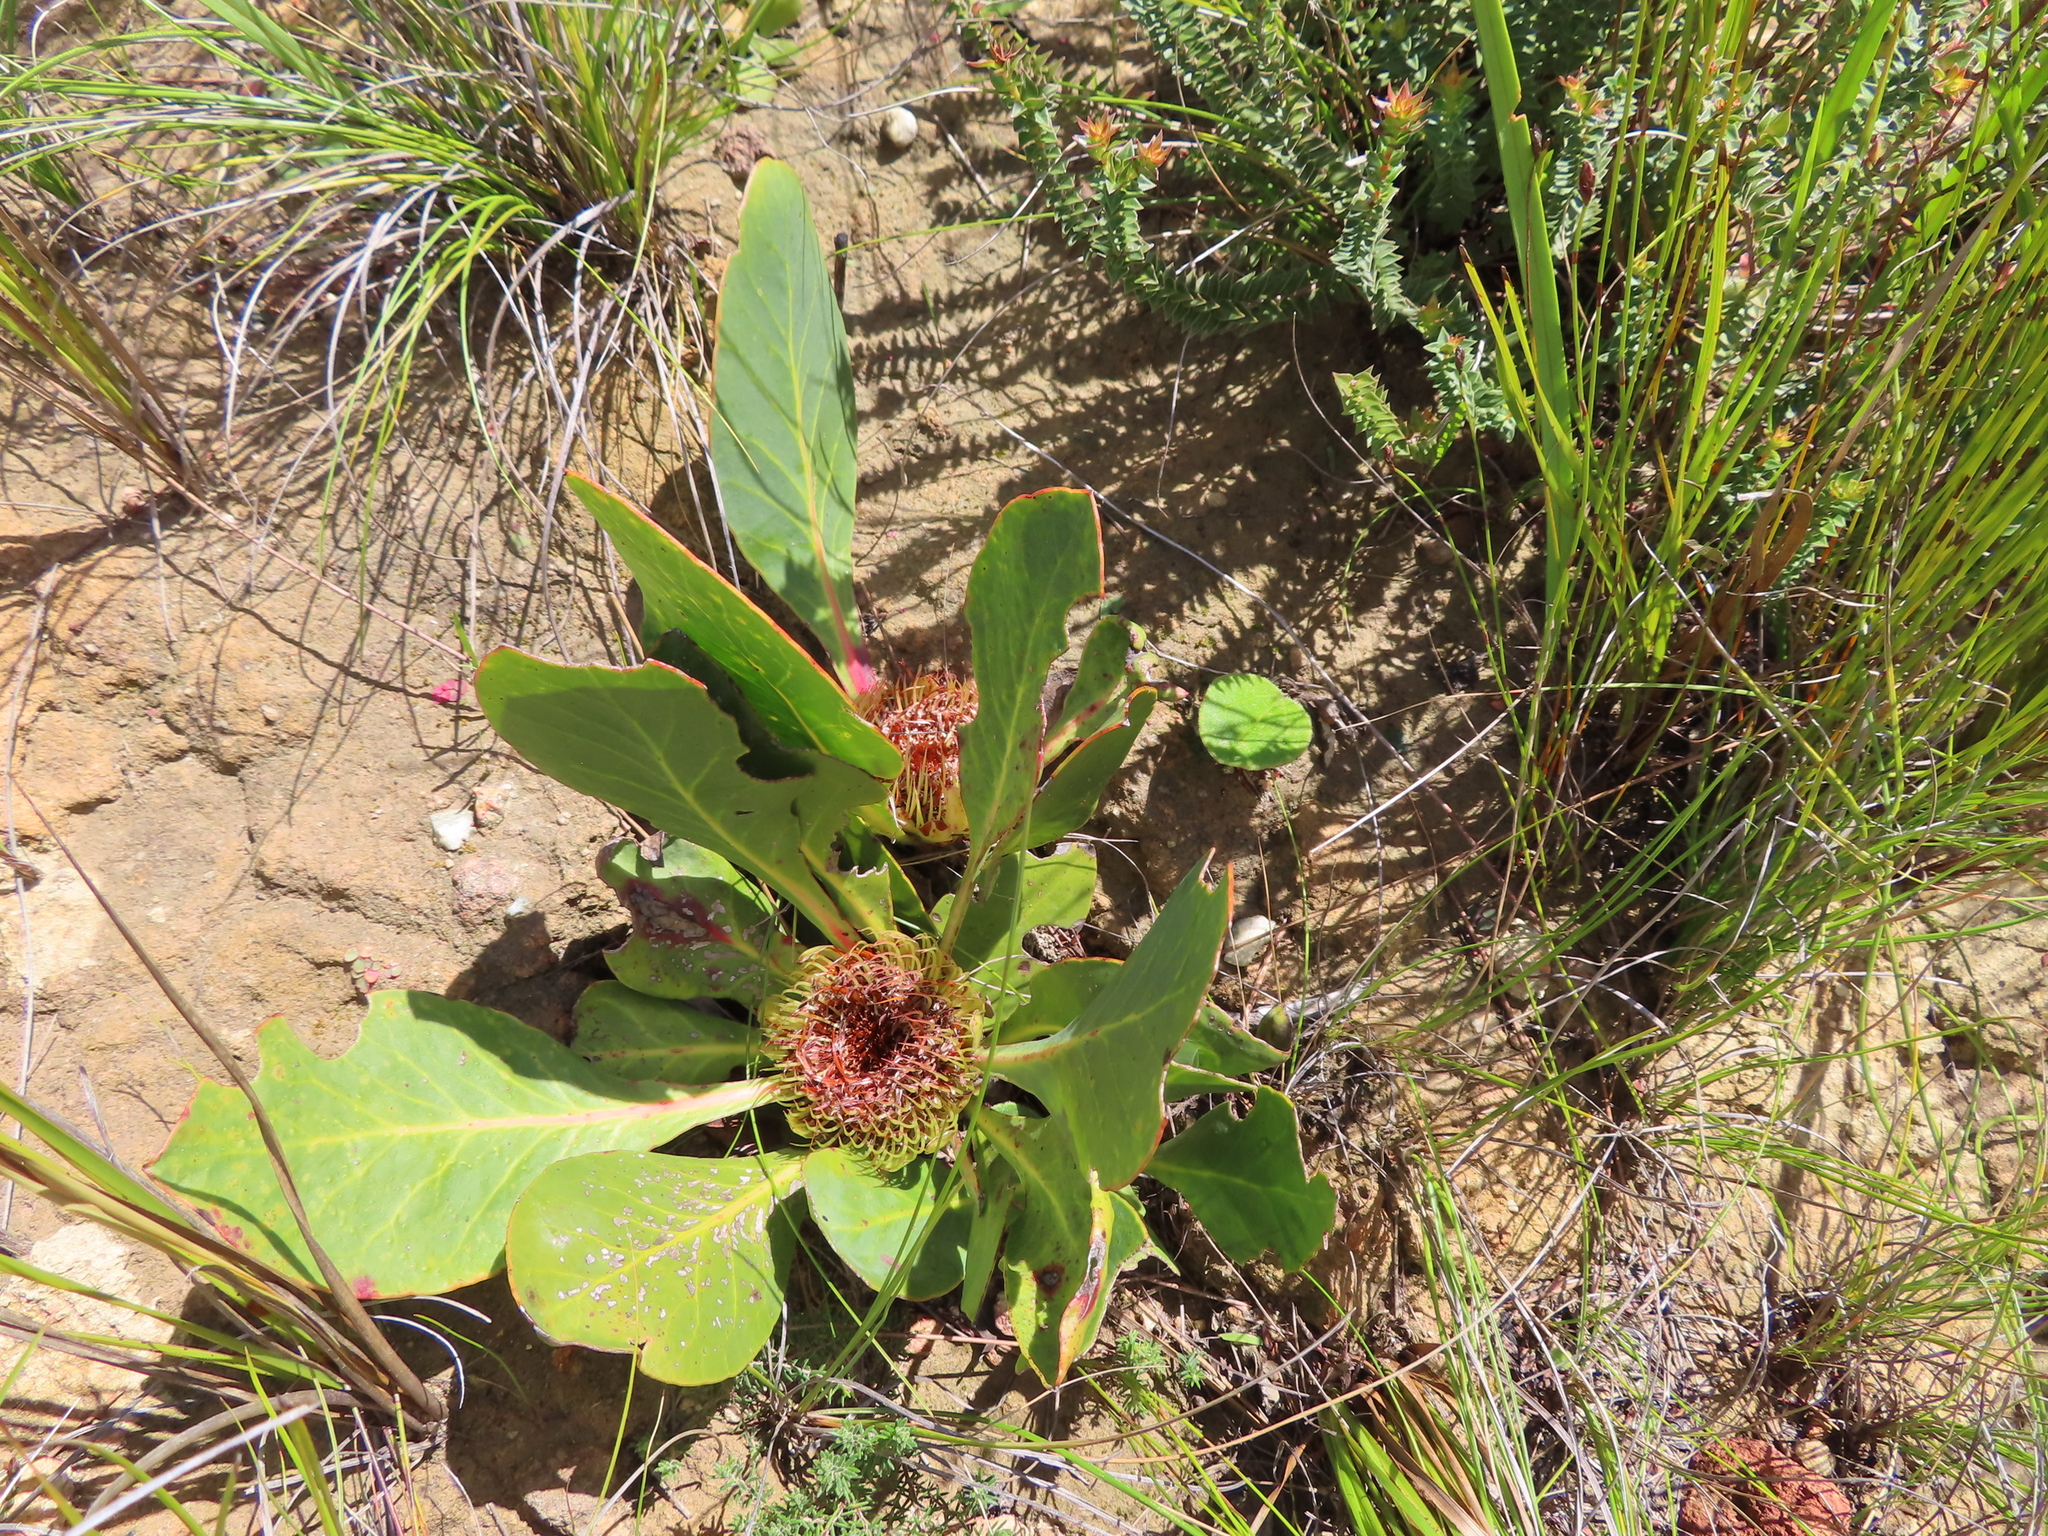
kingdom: Plantae
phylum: Tracheophyta
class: Magnoliopsida
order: Proteales
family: Proteaceae
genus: Protea
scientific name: Protea acaulos
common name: Common ground sugarbush
